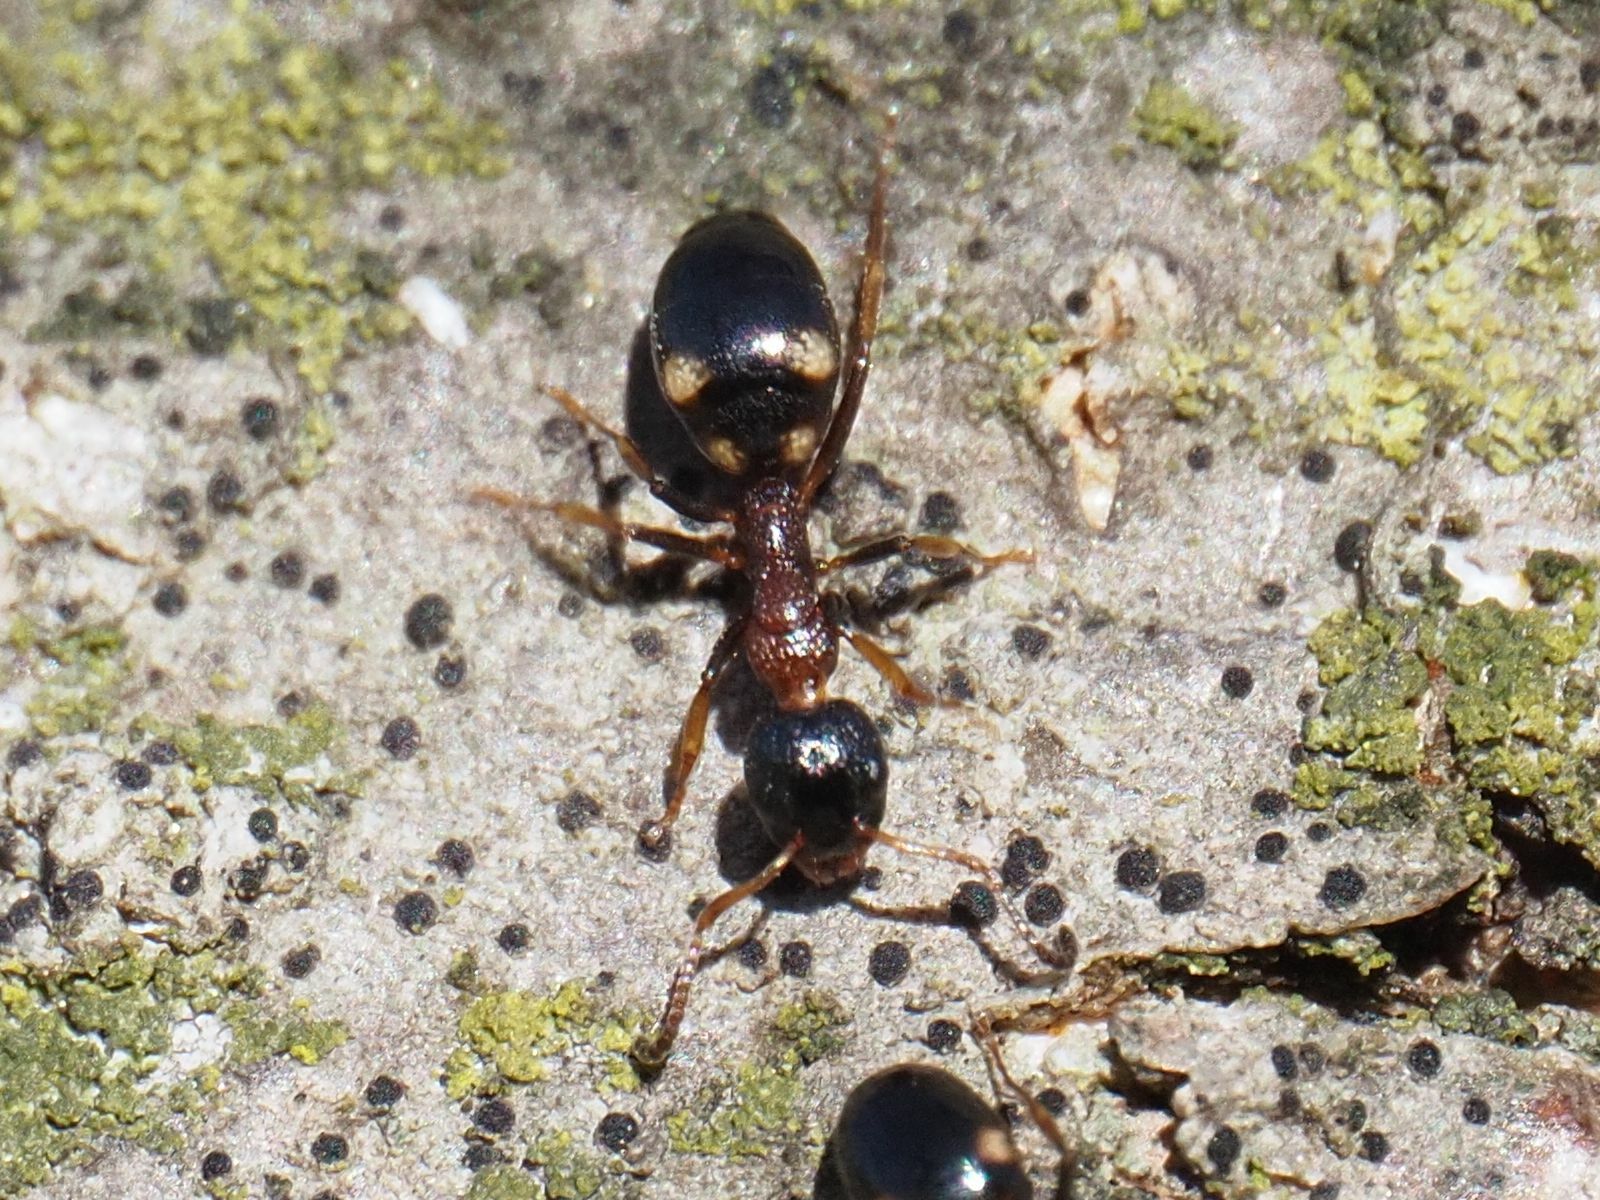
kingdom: Animalia
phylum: Arthropoda
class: Insecta
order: Hymenoptera
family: Formicidae
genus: Dolichoderus
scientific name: Dolichoderus quadripunctatus
